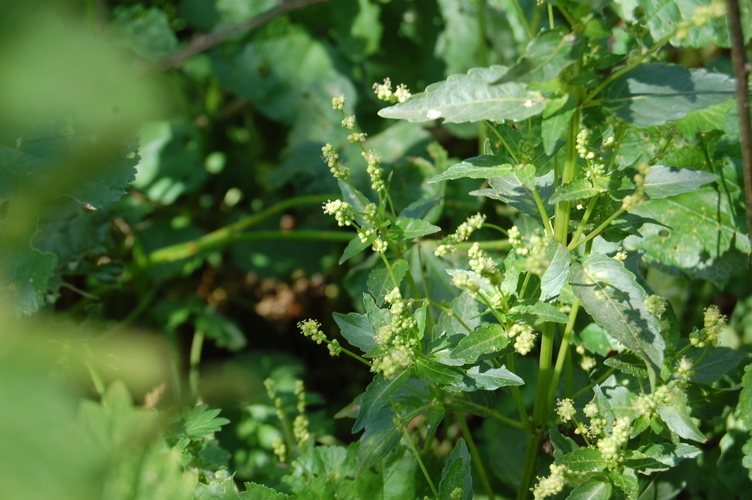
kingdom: Plantae
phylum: Tracheophyta
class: Magnoliopsida
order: Malpighiales
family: Euphorbiaceae
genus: Mercurialis
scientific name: Mercurialis annua
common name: Annual mercury
